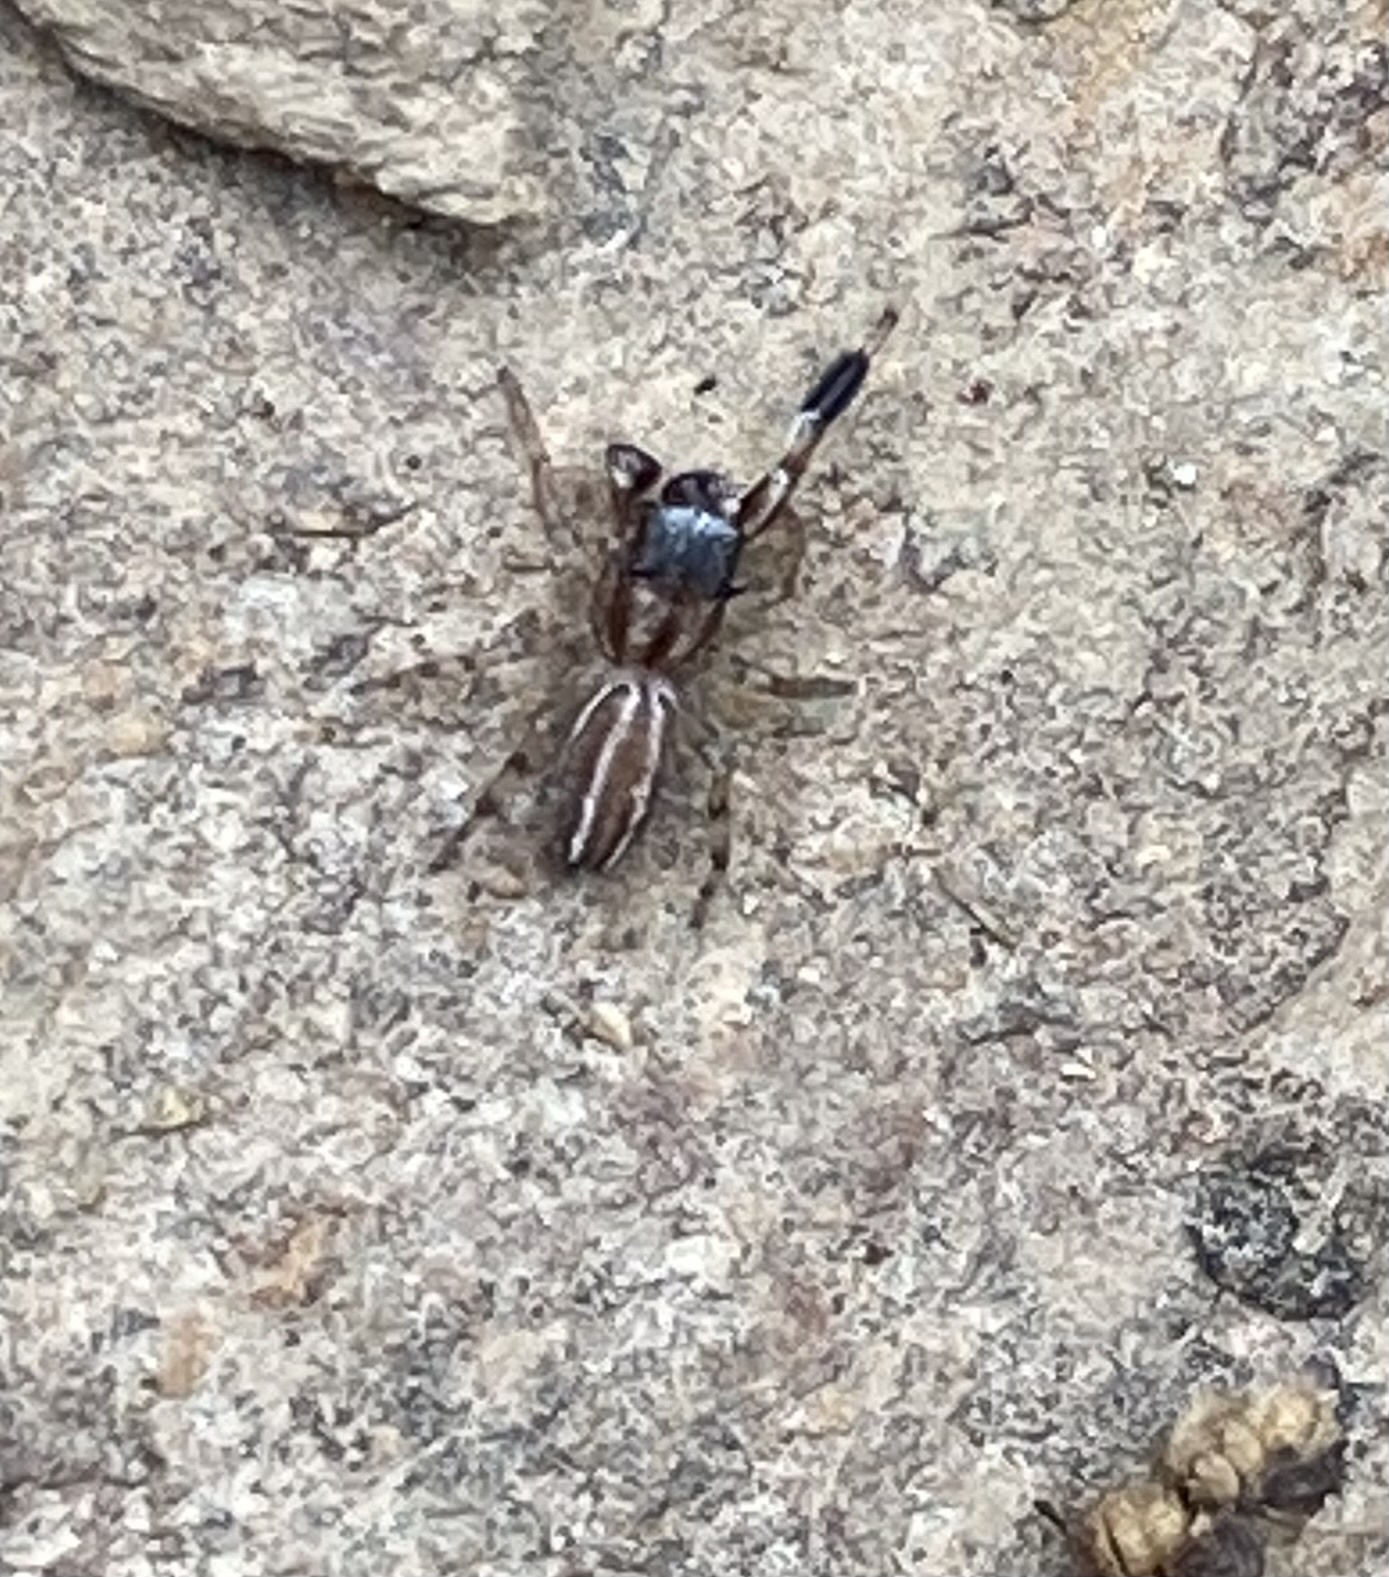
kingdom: Animalia
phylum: Arthropoda
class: Arachnida
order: Araneae
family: Salticidae
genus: Marpissa
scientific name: Marpissa lineata
